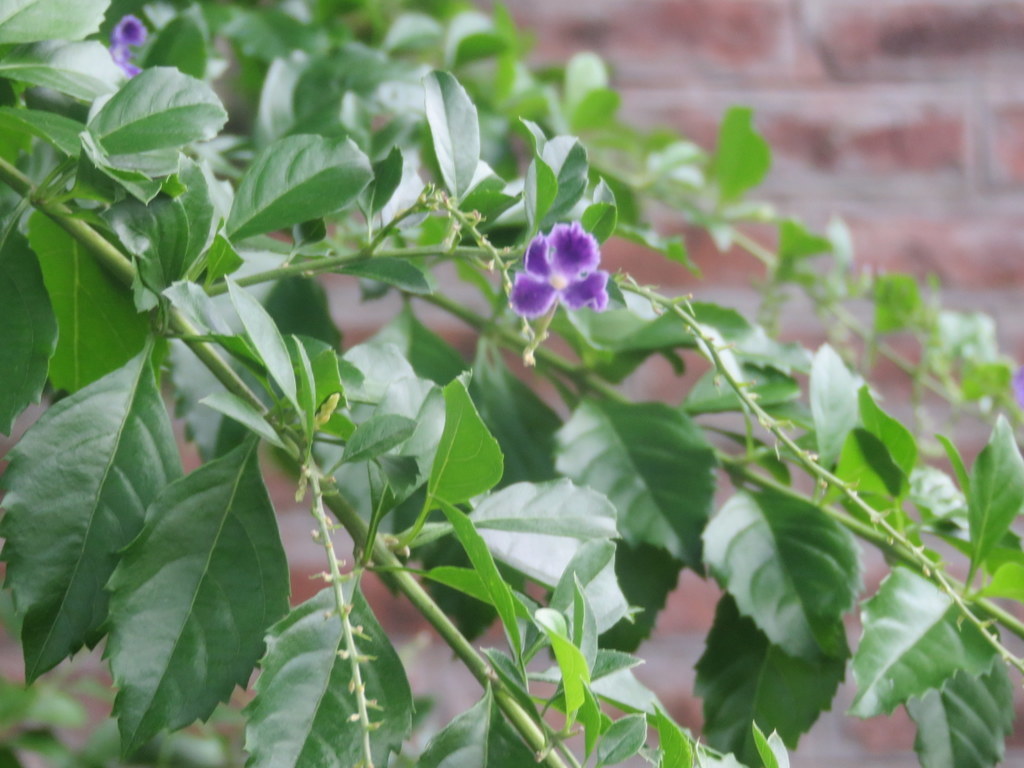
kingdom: Plantae
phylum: Tracheophyta
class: Magnoliopsida
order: Lamiales
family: Verbenaceae
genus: Duranta
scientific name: Duranta erecta
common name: Golden dewdrops
